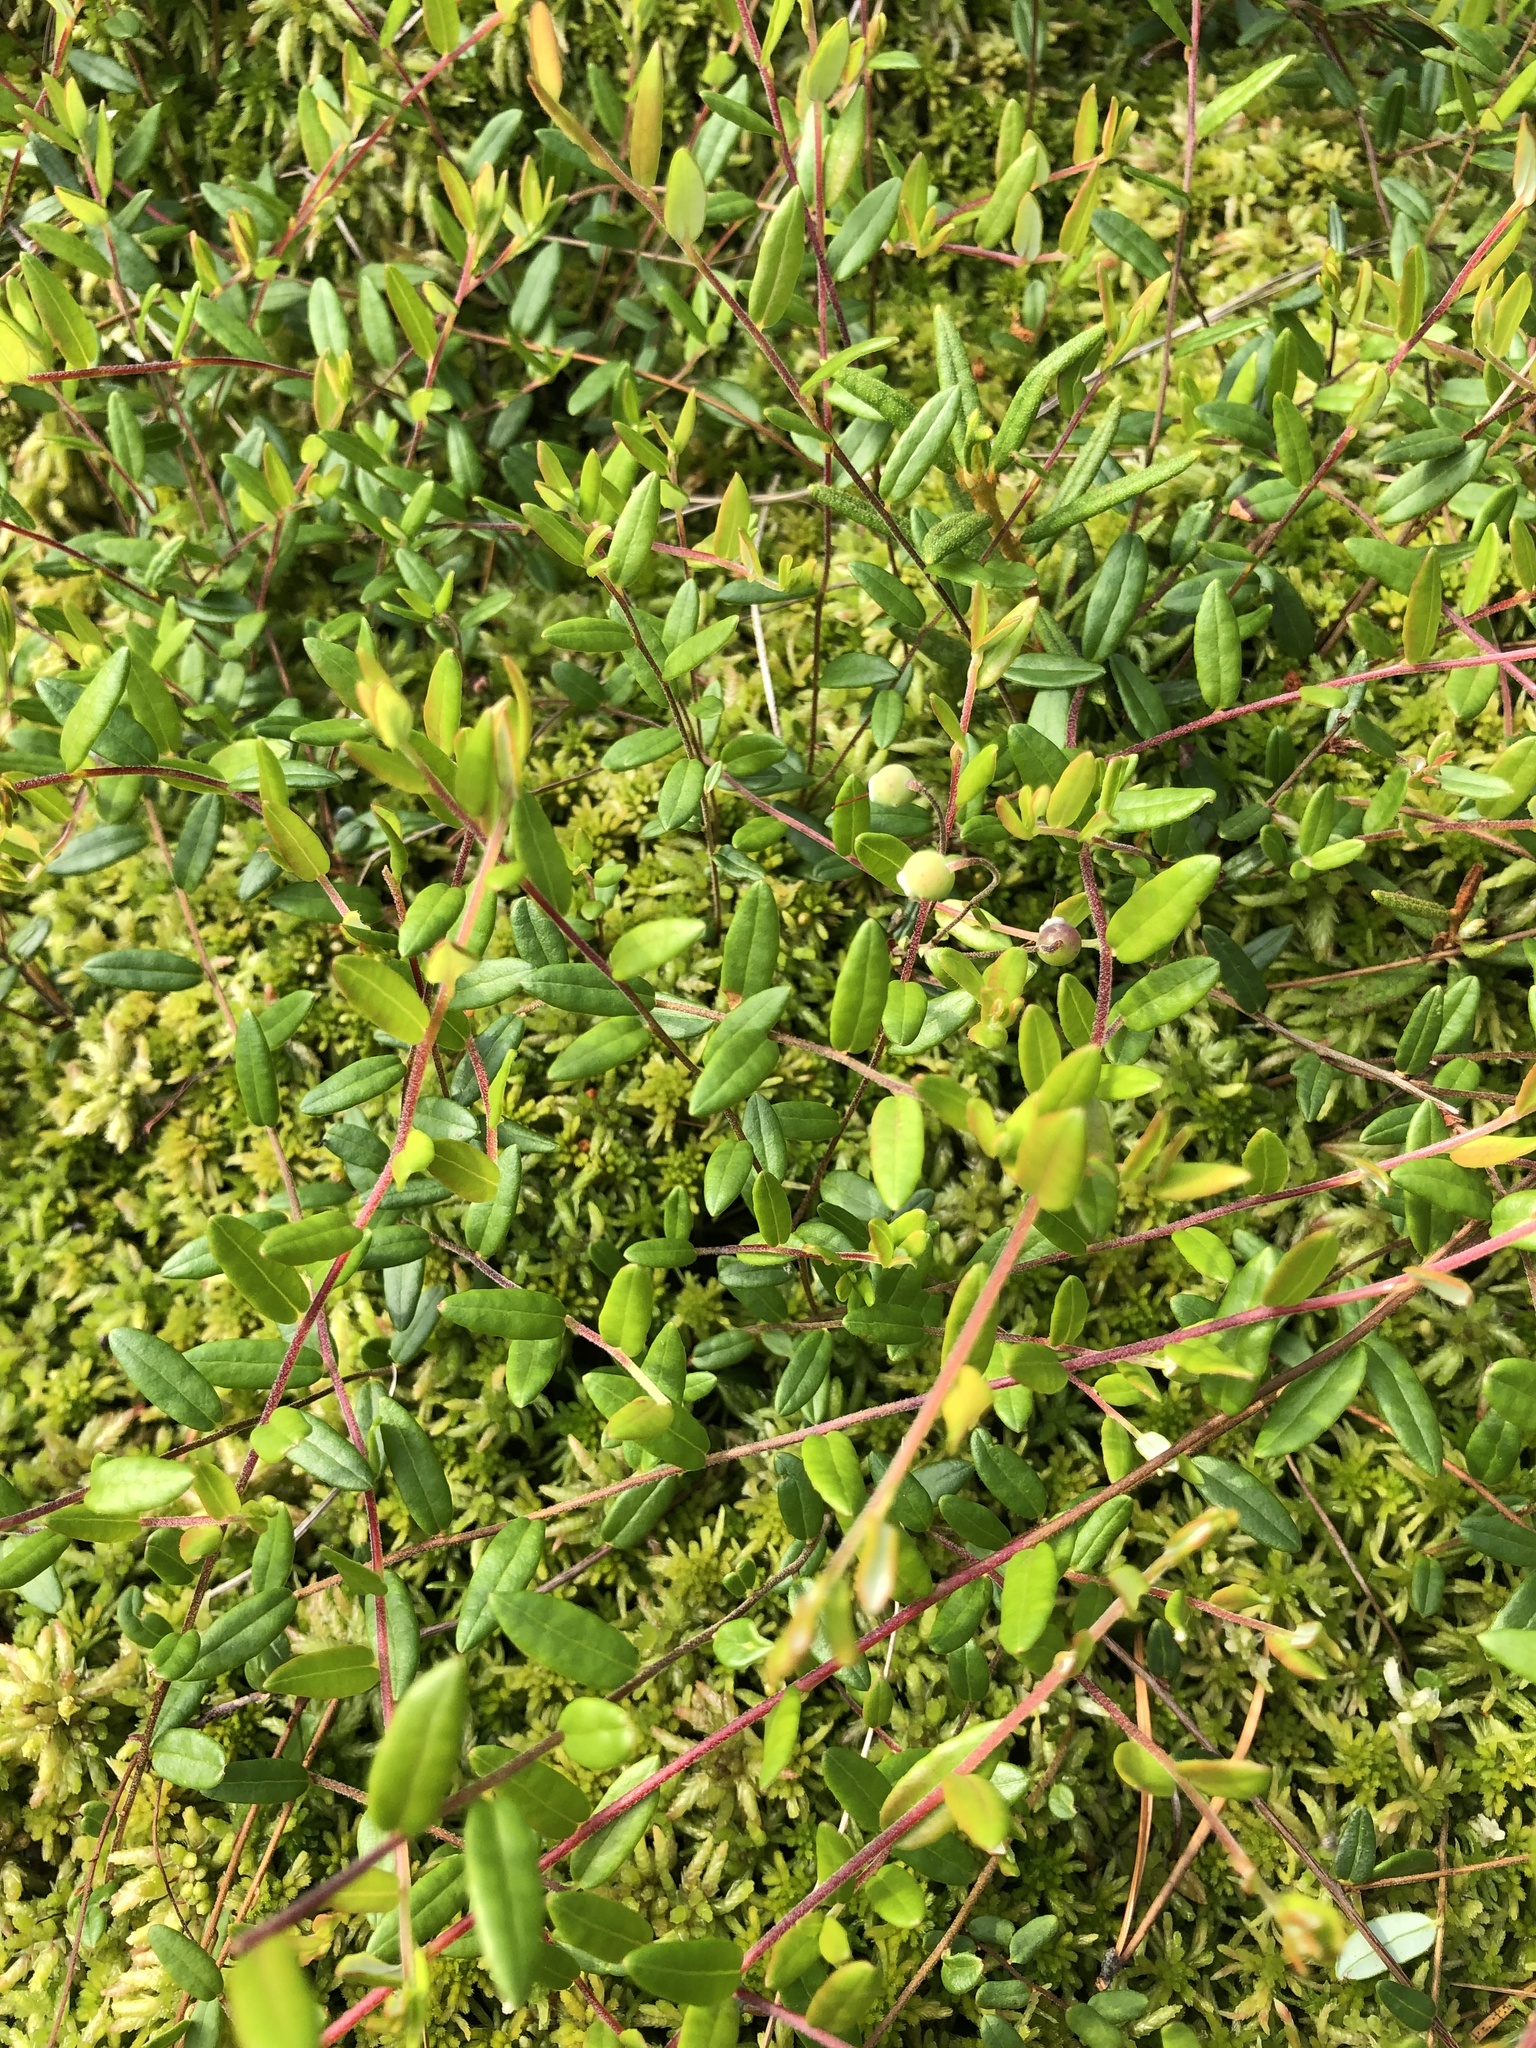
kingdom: Plantae
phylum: Tracheophyta
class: Magnoliopsida
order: Ericales
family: Ericaceae
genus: Vaccinium
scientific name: Vaccinium oxycoccos
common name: Cranberry
